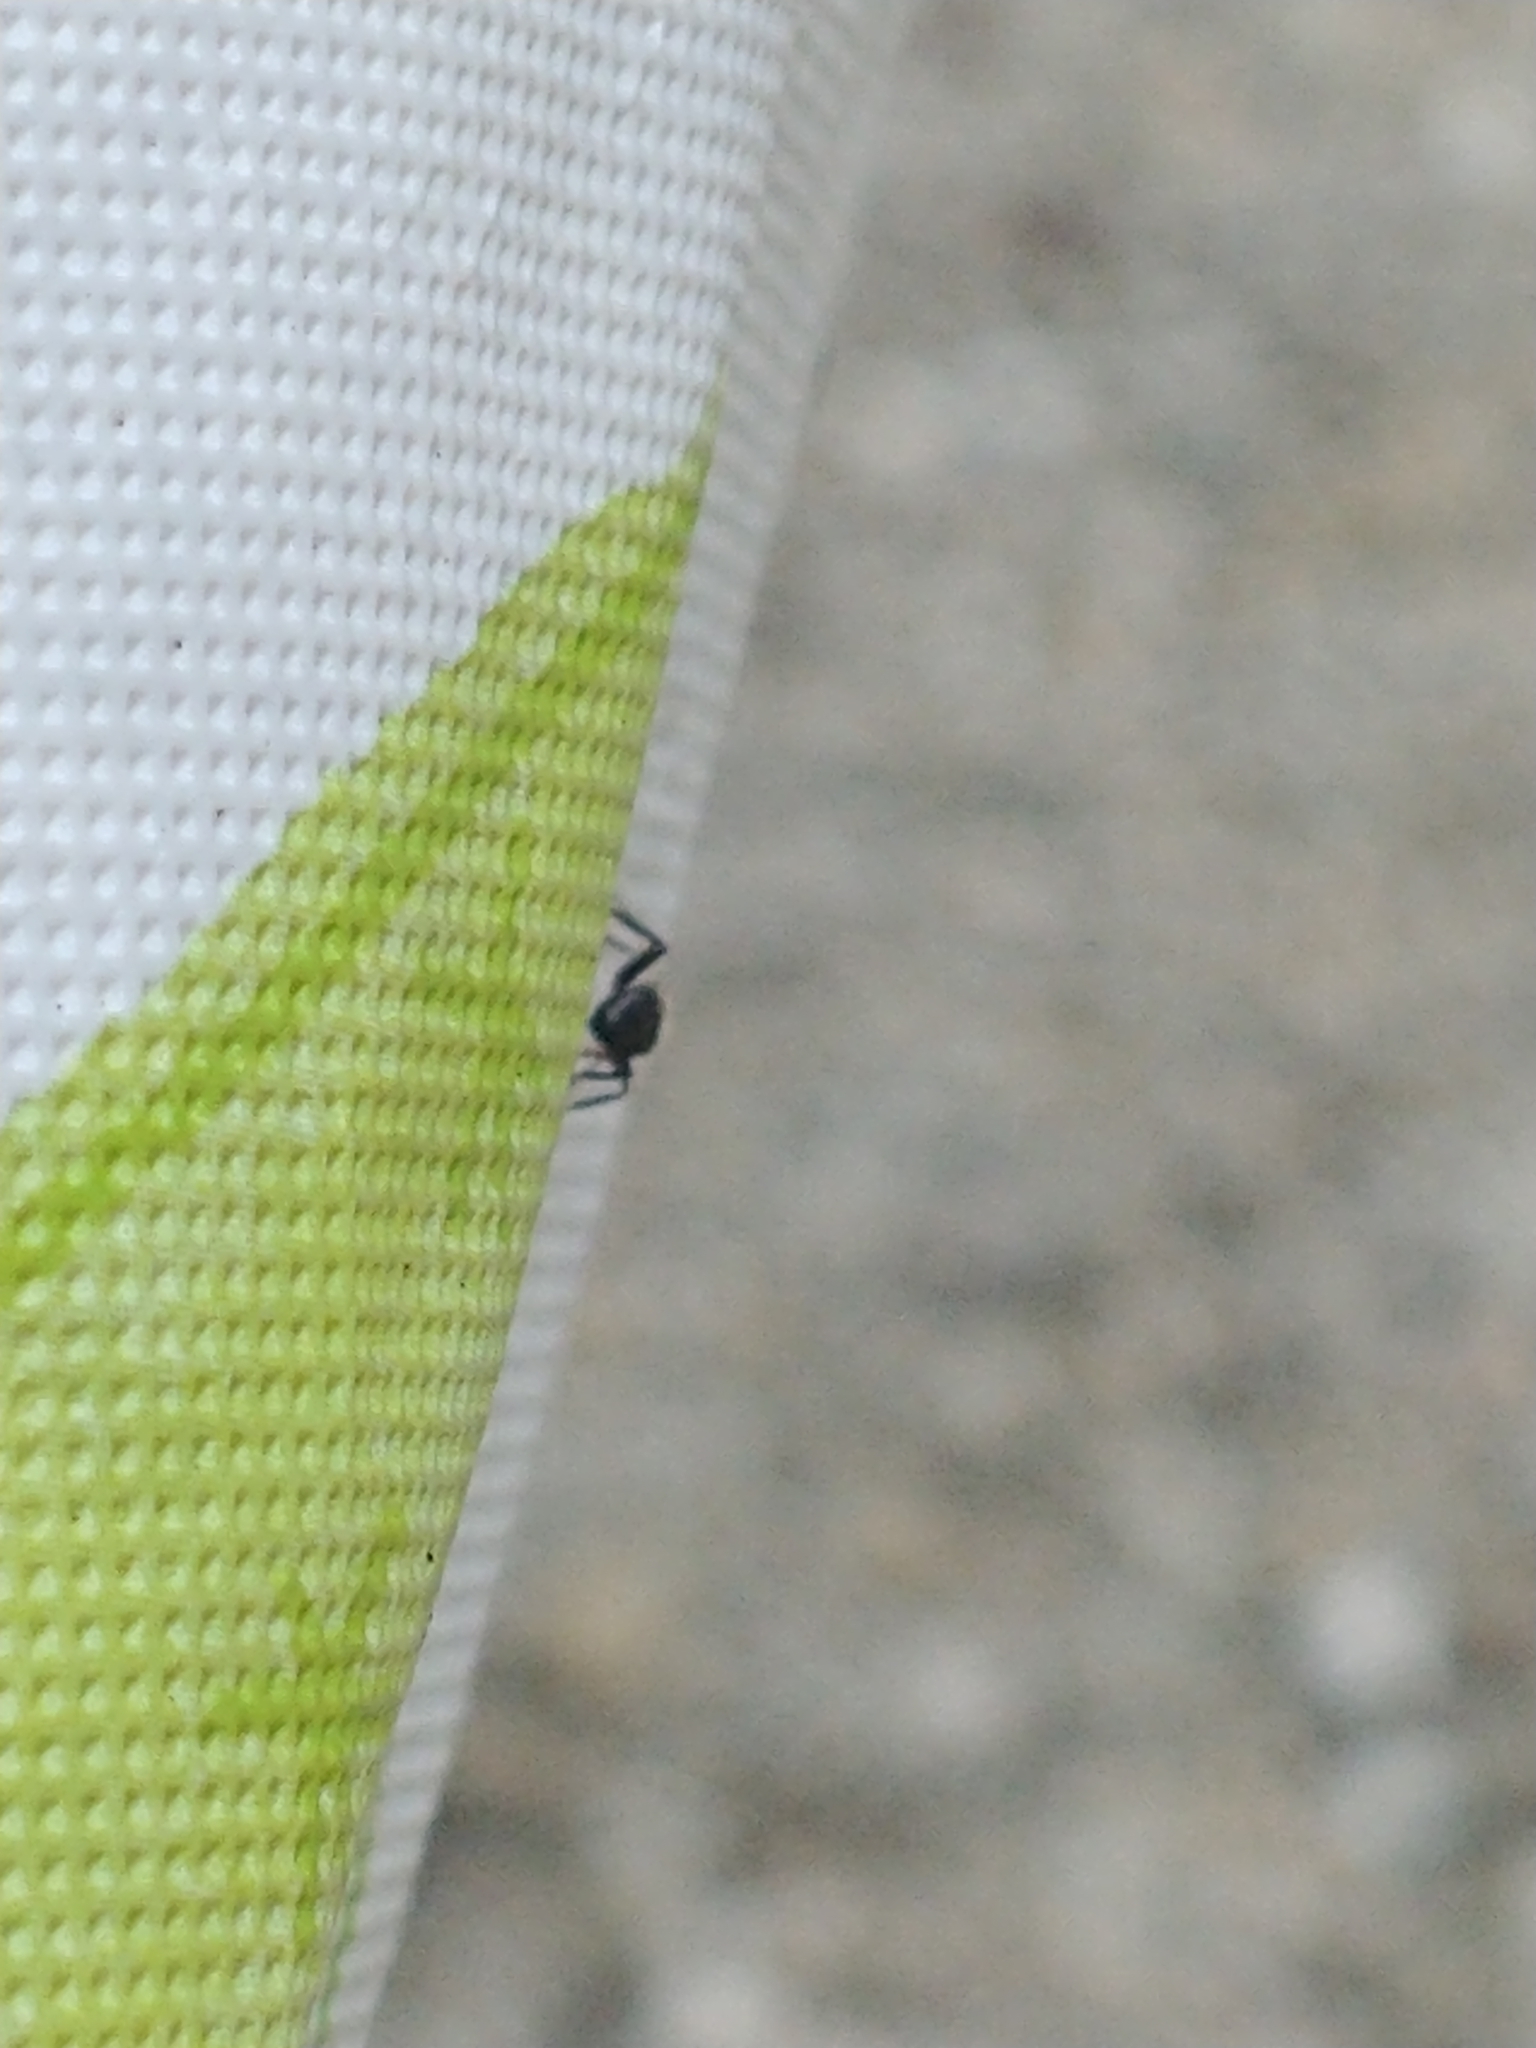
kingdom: Animalia
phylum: Arthropoda
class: Insecta
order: Hymenoptera
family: Formicidae
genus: Camponotus
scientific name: Camponotus planatus
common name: Compact carpenter ant
